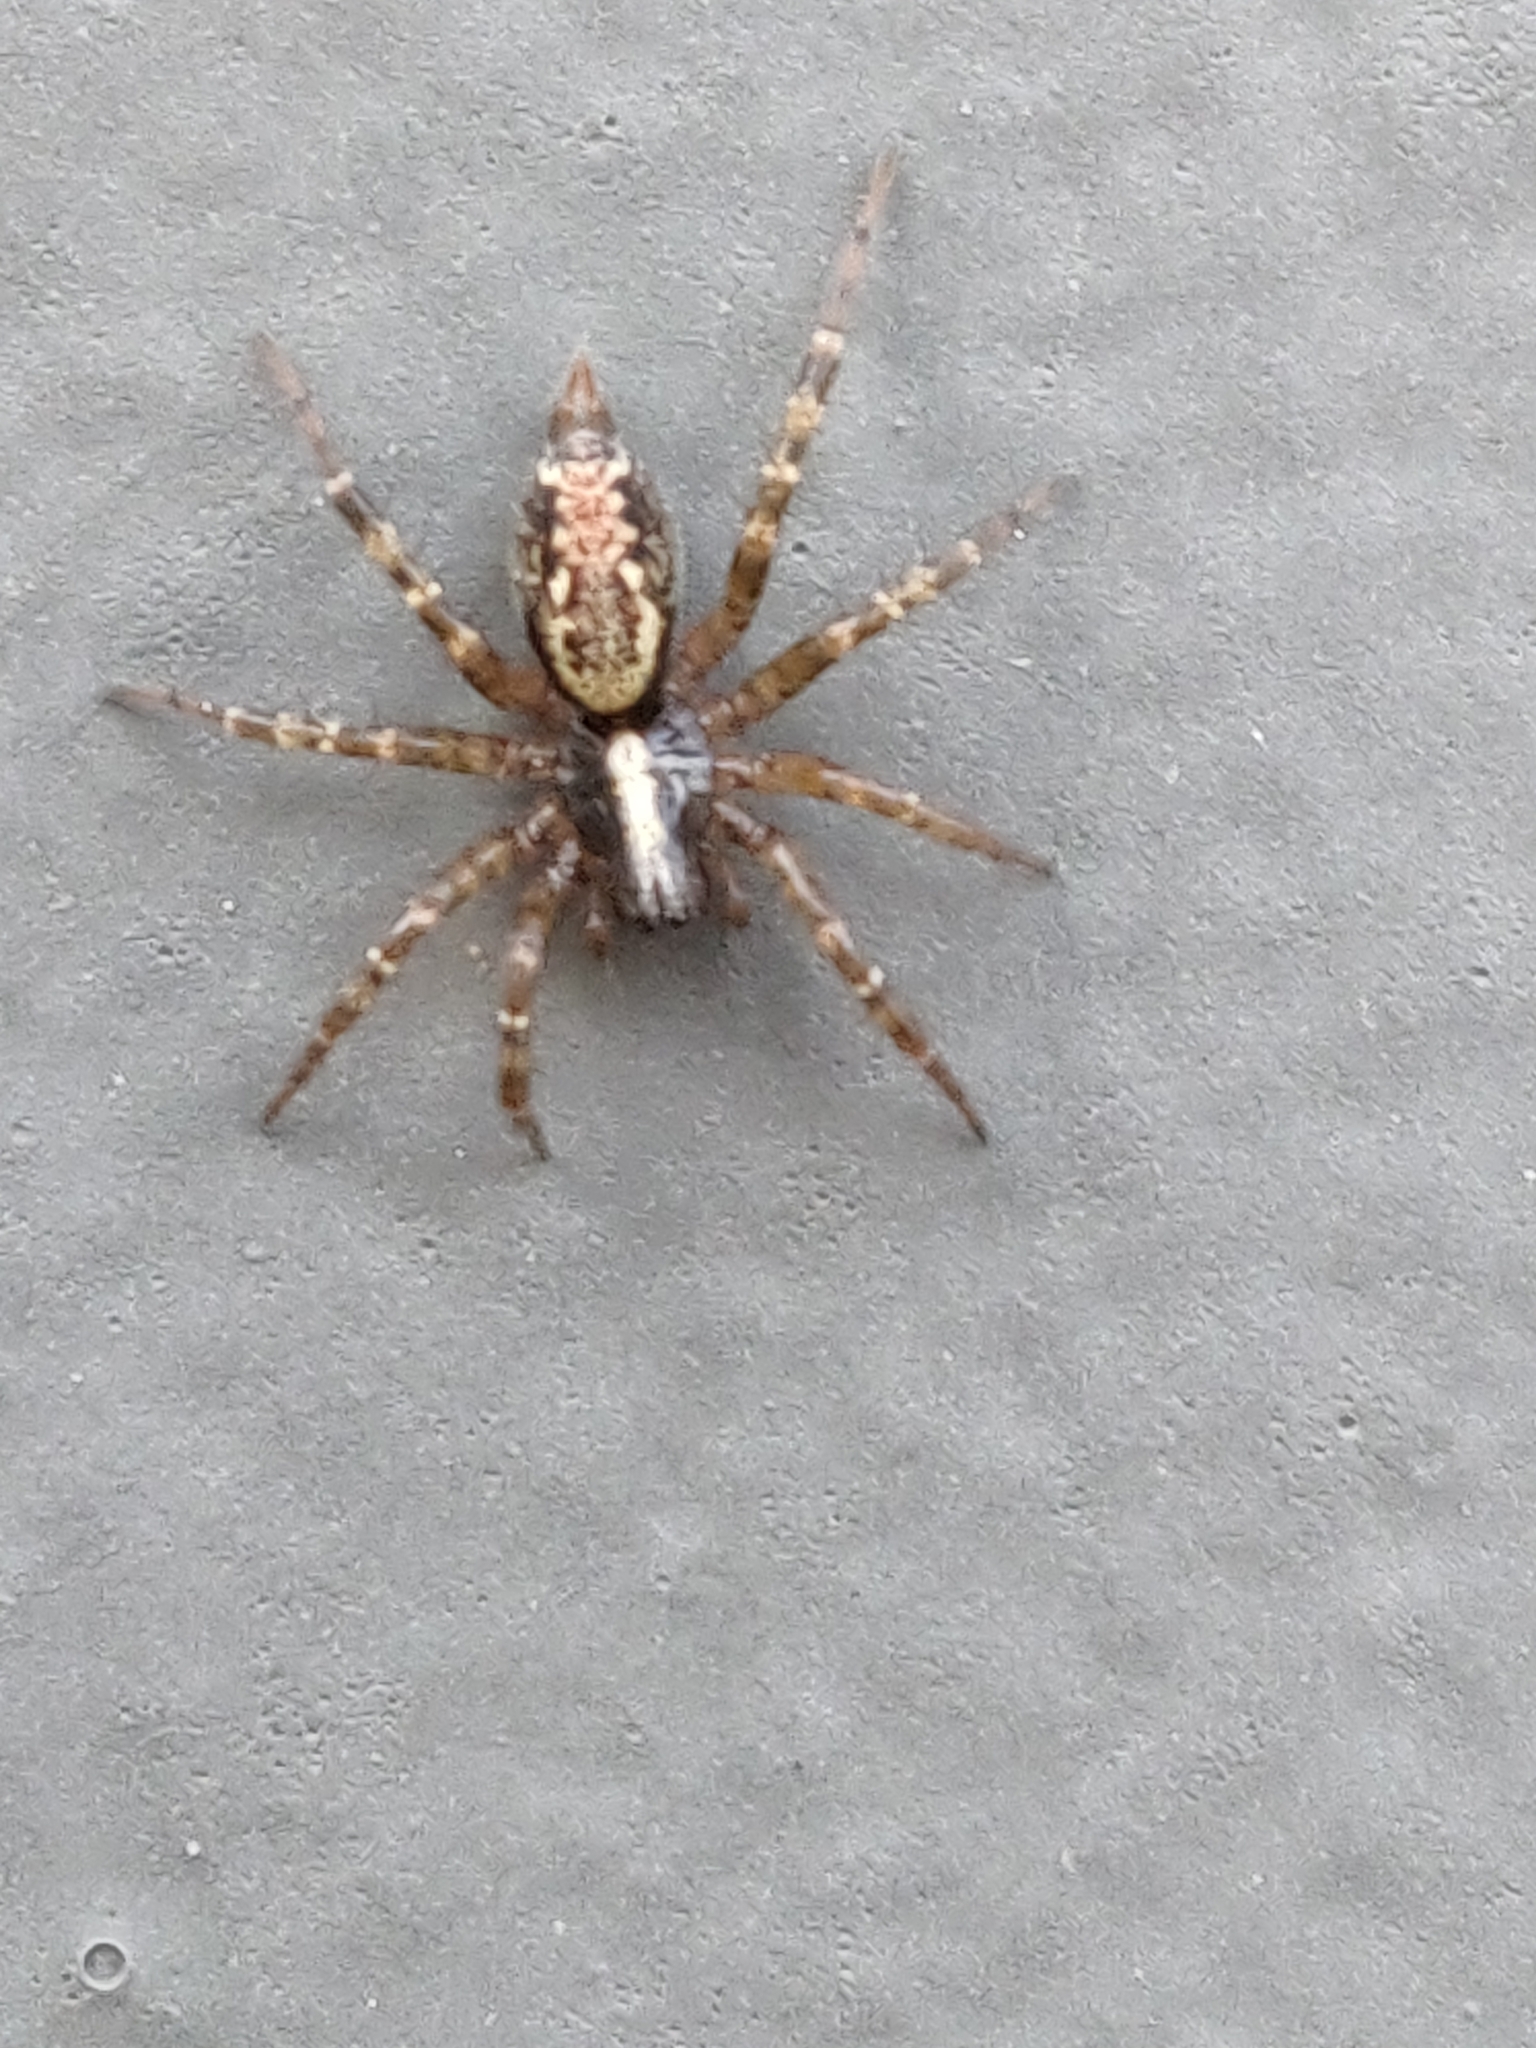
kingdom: Animalia
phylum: Arthropoda
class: Arachnida
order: Araneae
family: Agelenidae
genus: Textrix
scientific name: Textrix denticulata
